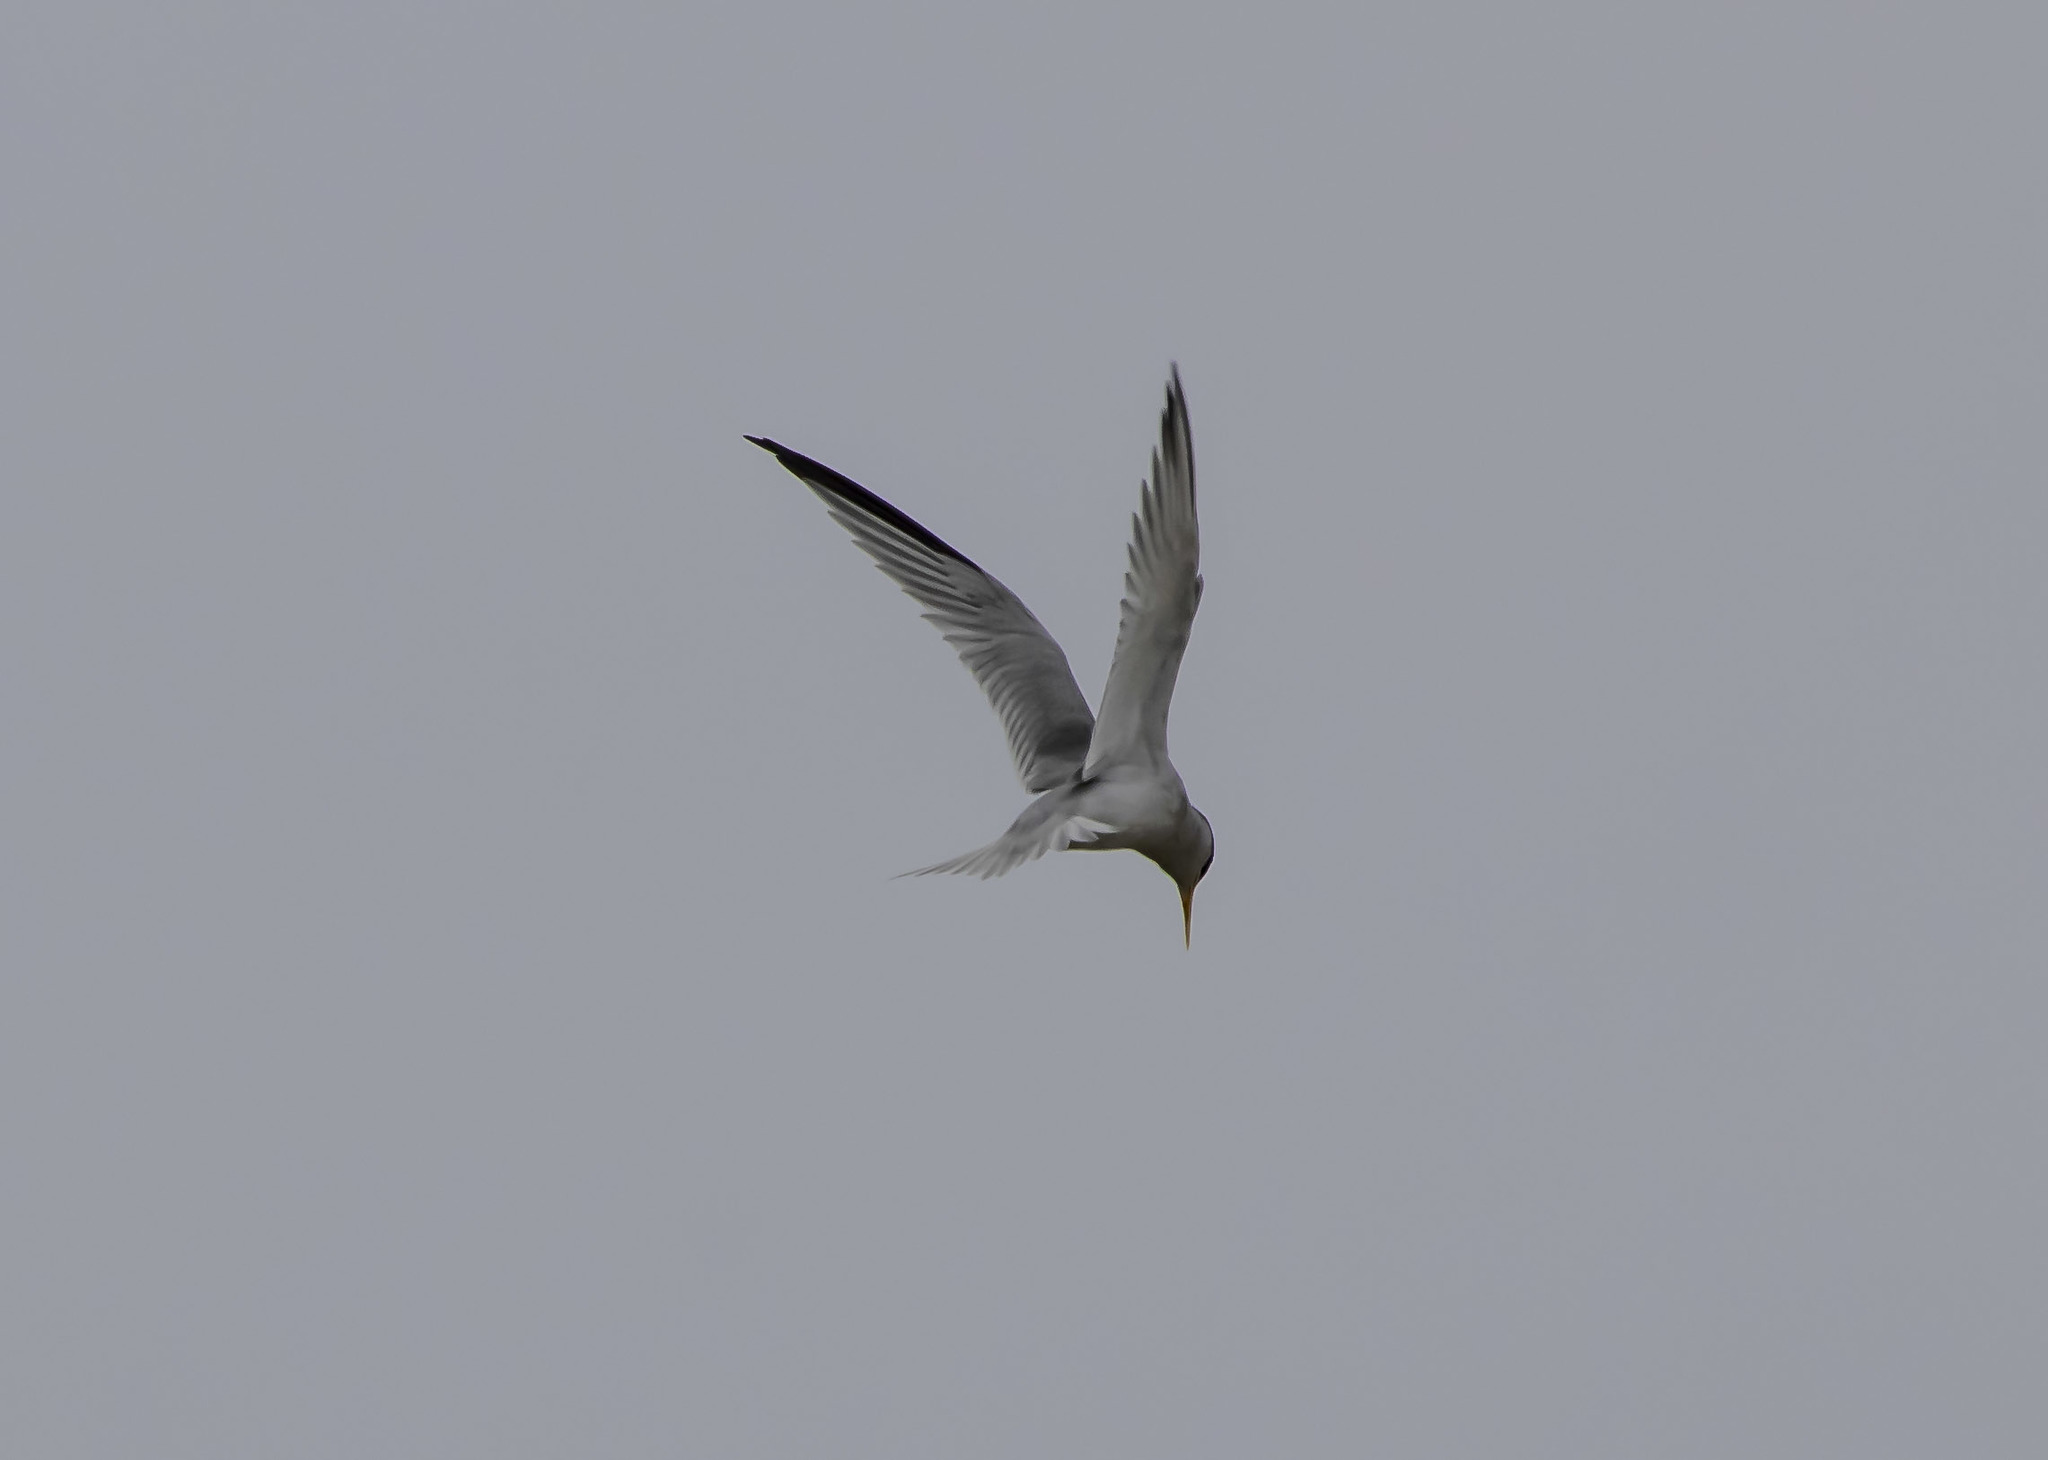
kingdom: Animalia
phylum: Chordata
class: Aves
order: Charadriiformes
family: Laridae
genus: Sternula
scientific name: Sternula antillarum
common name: Least tern
